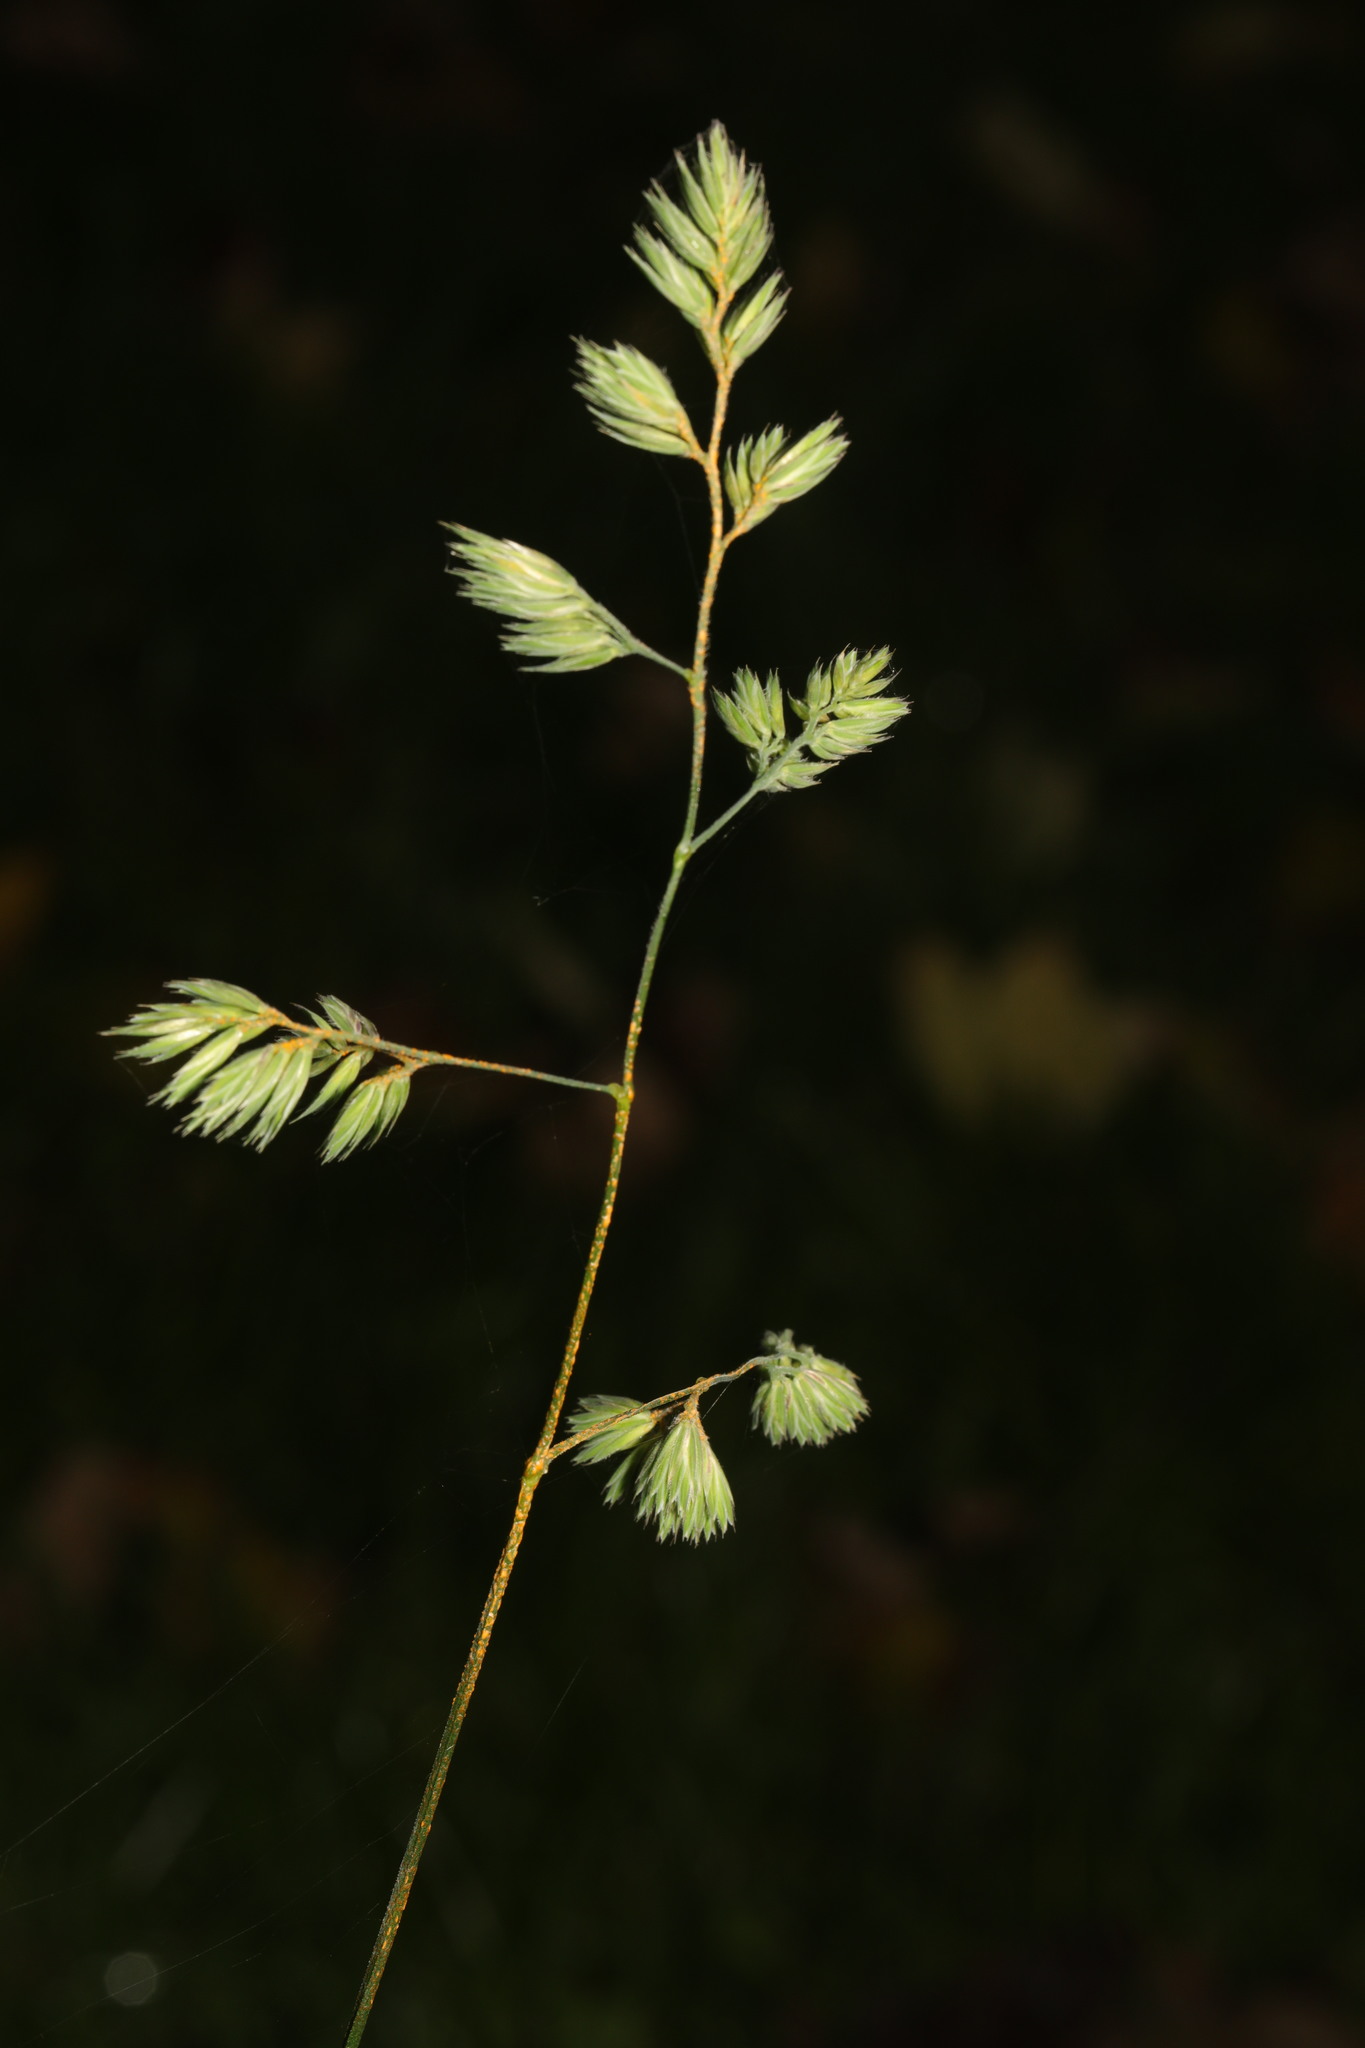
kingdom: Plantae
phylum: Tracheophyta
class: Liliopsida
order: Poales
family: Poaceae
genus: Dactylis
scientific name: Dactylis glomerata
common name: Orchardgrass
